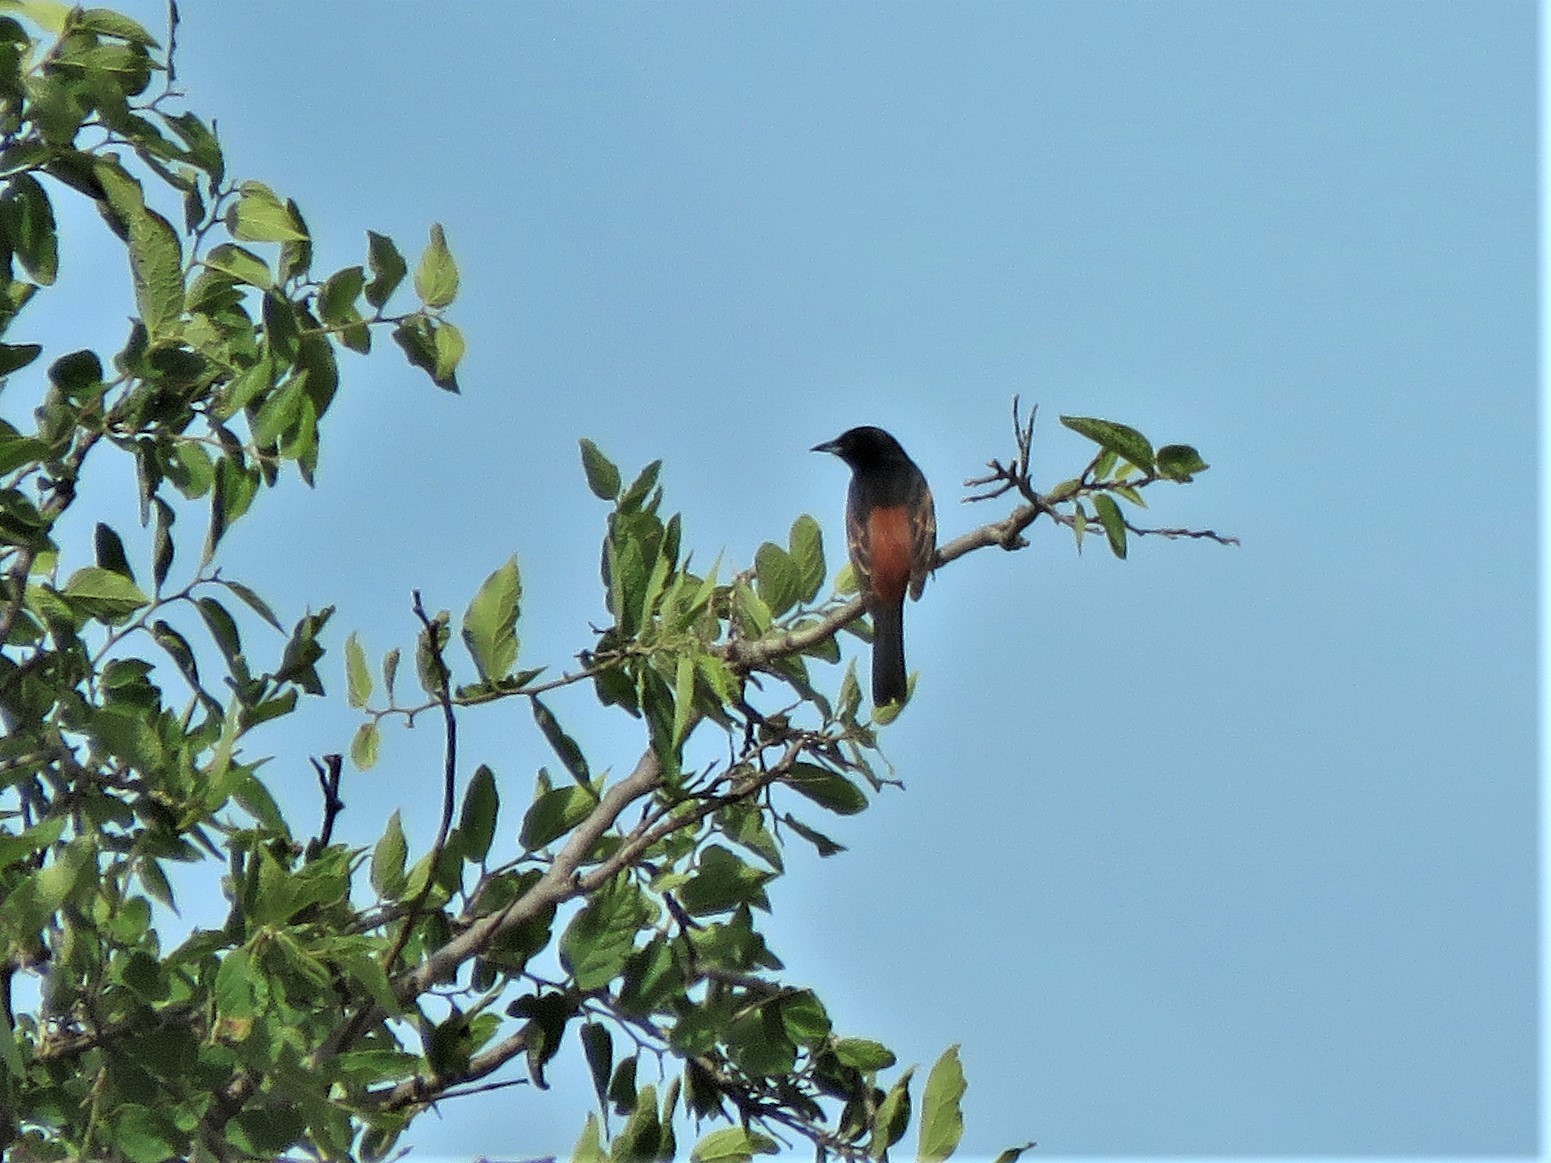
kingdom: Animalia
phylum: Chordata
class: Aves
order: Passeriformes
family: Icteridae
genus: Icterus
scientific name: Icterus spurius
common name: Orchard oriole
